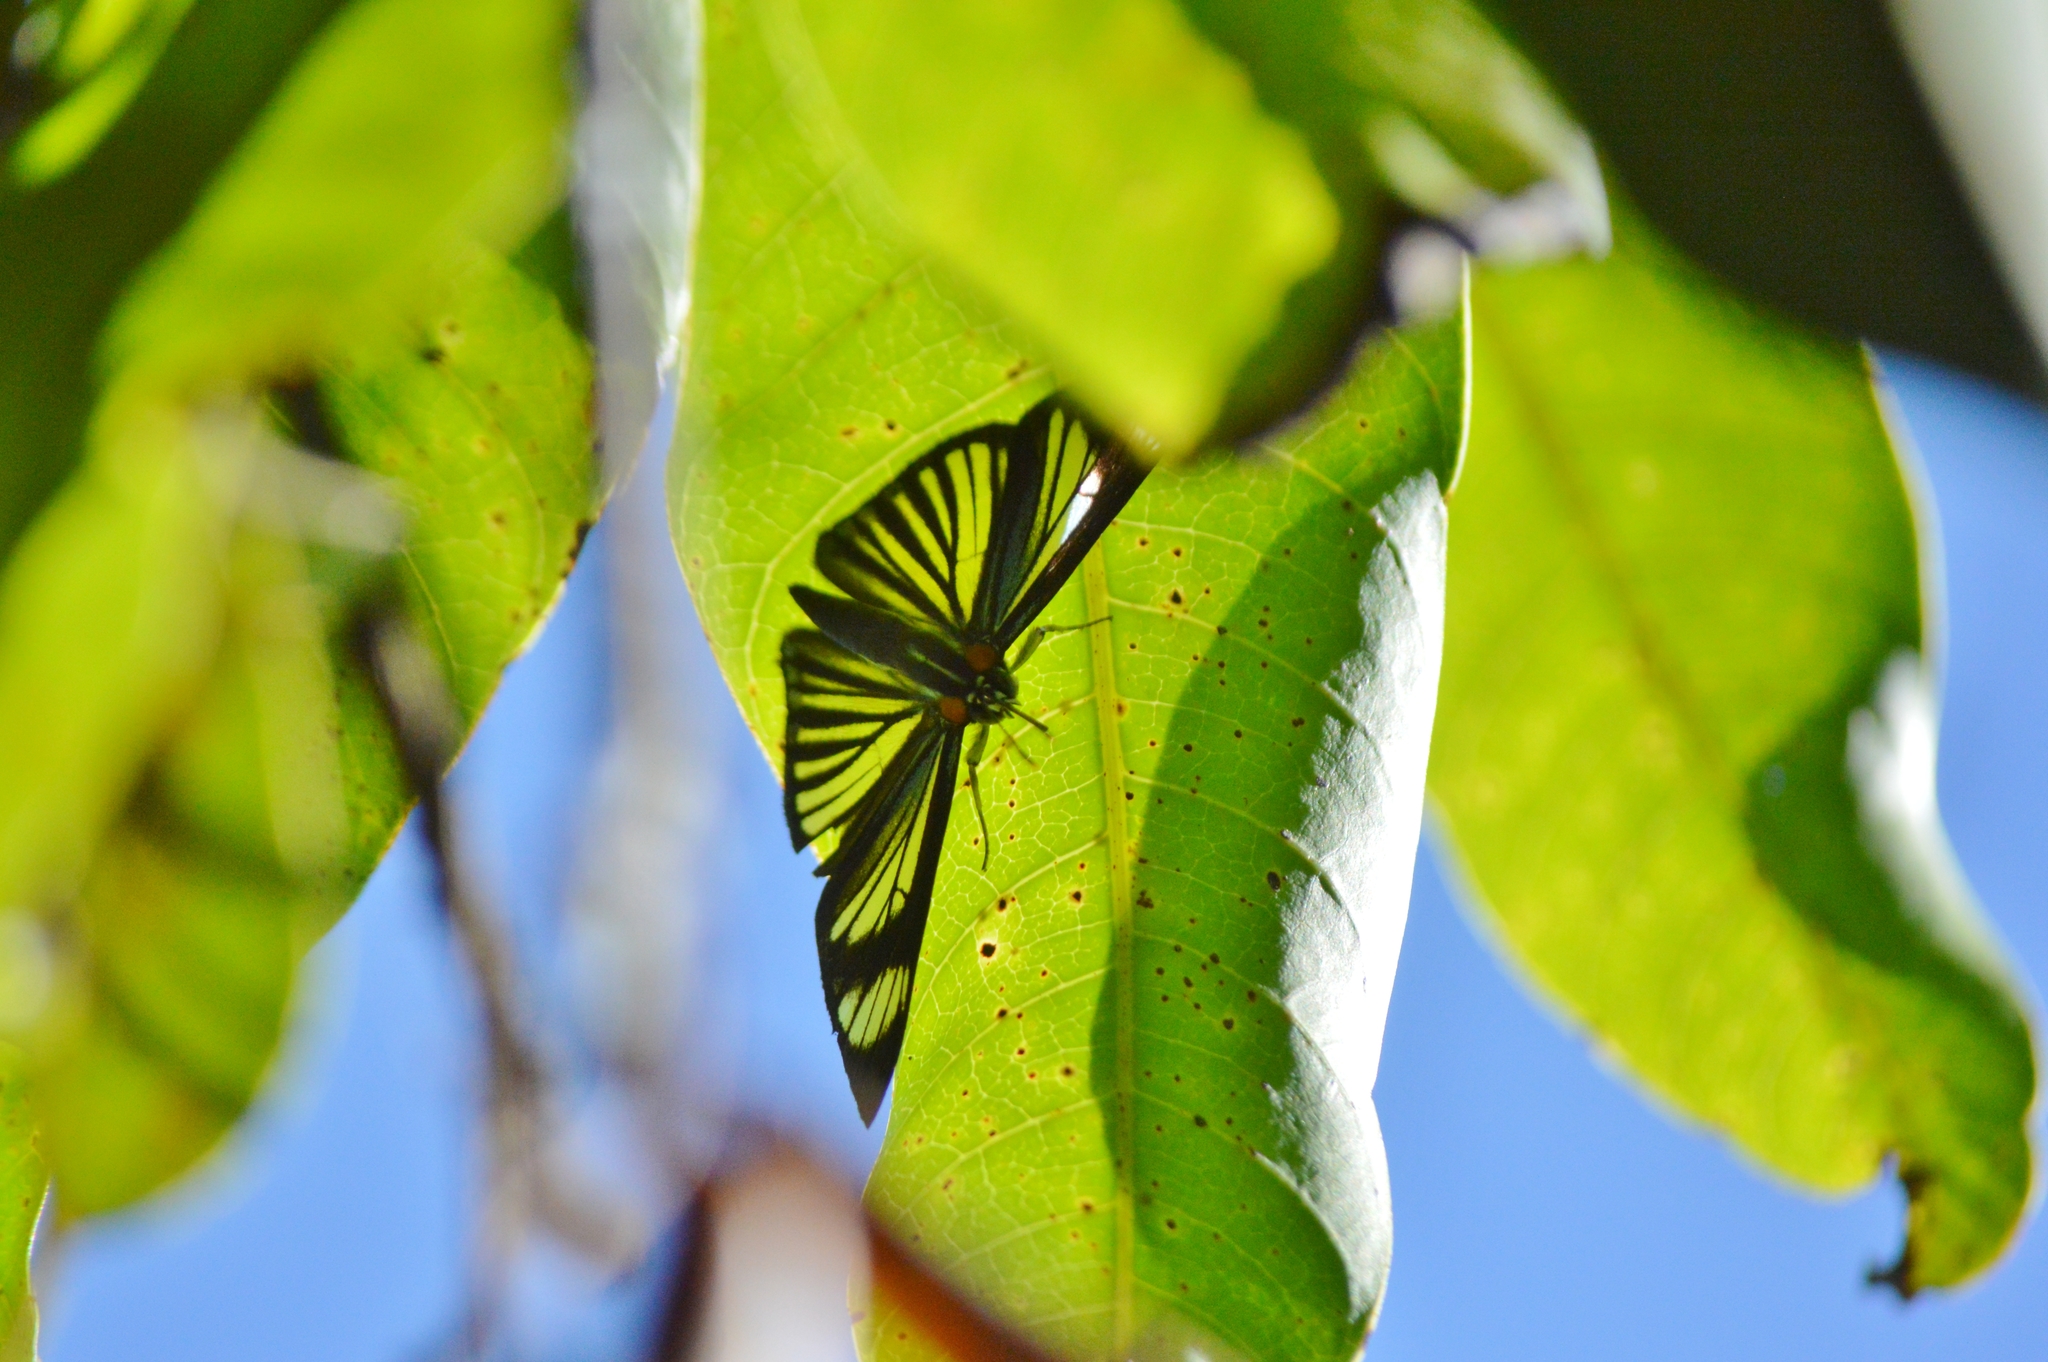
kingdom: Animalia
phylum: Arthropoda
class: Insecta
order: Lepidoptera
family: Riodinidae
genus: Uraneis
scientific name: Uraneis hyalina
